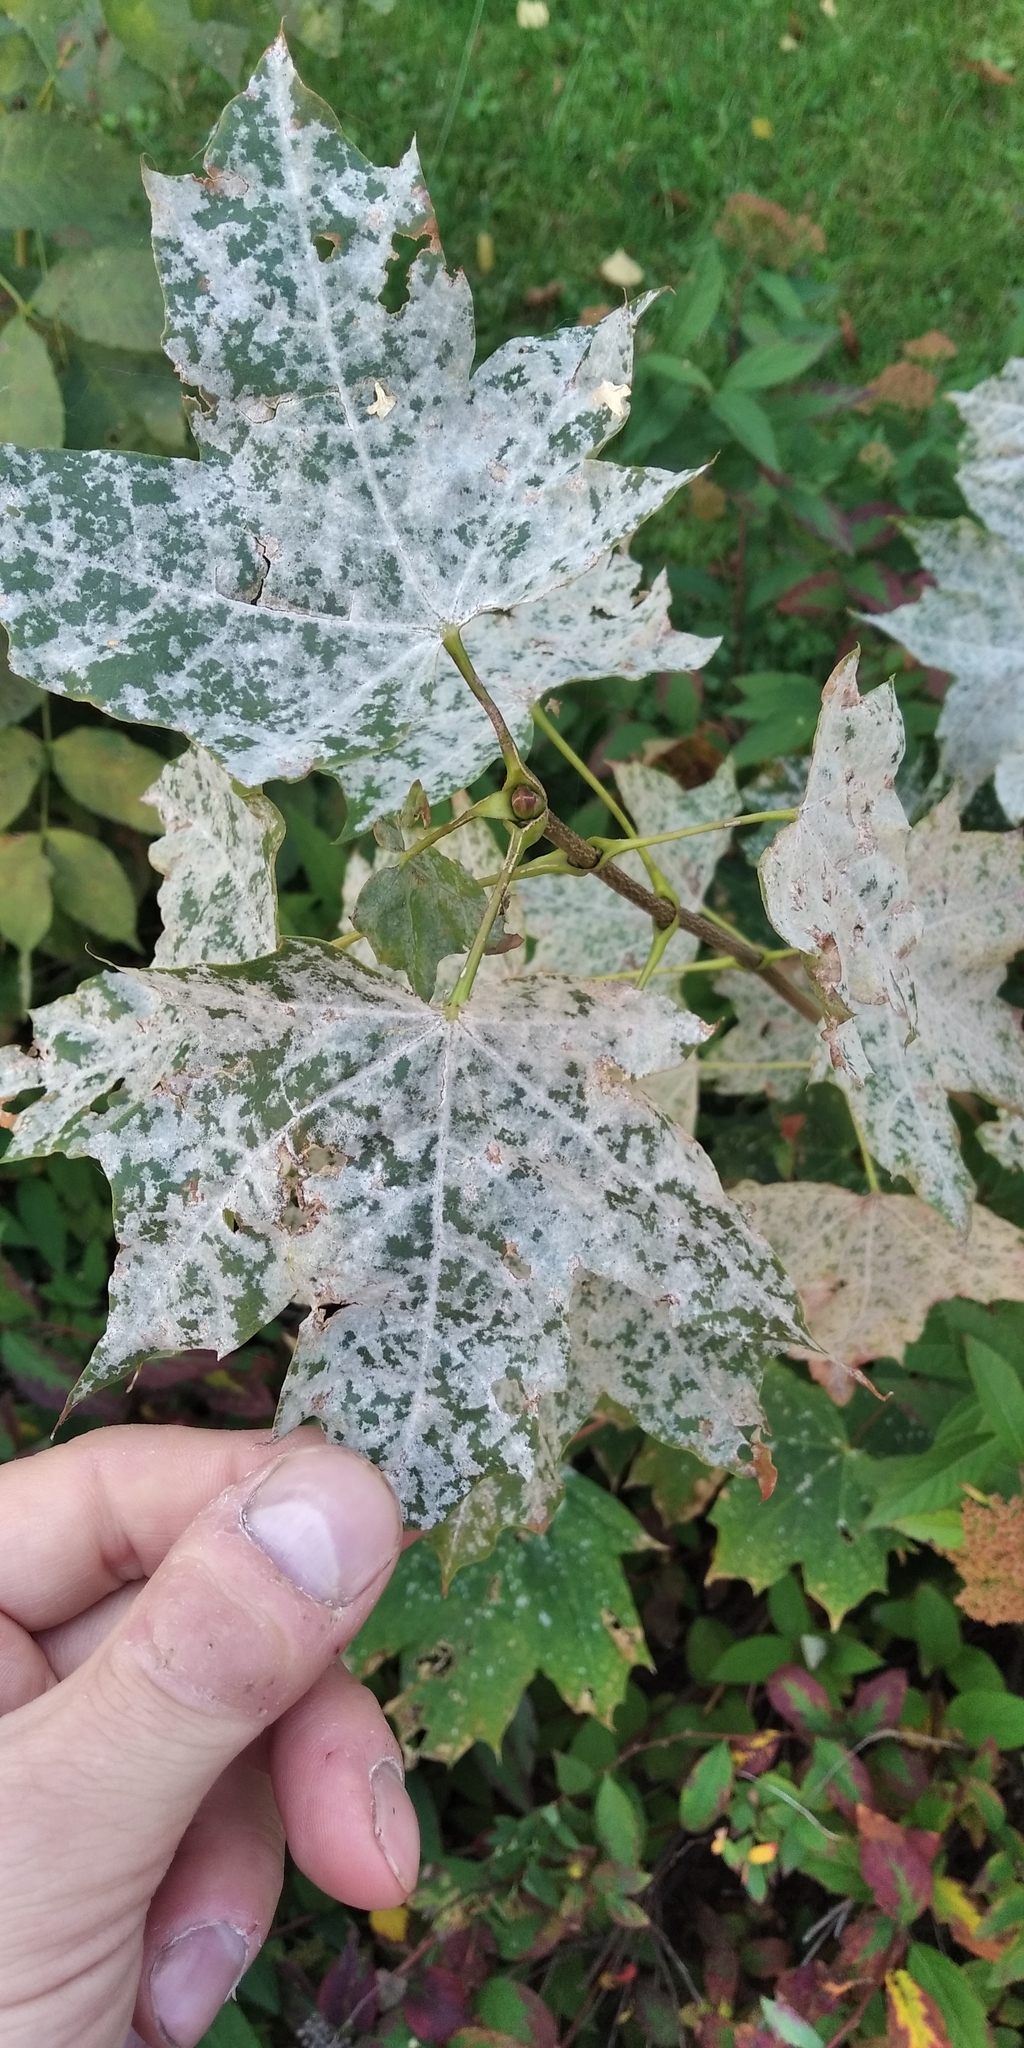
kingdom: Fungi
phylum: Ascomycota
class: Leotiomycetes
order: Helotiales
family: Erysiphaceae
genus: Sawadaea
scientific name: Sawadaea tulasnei
